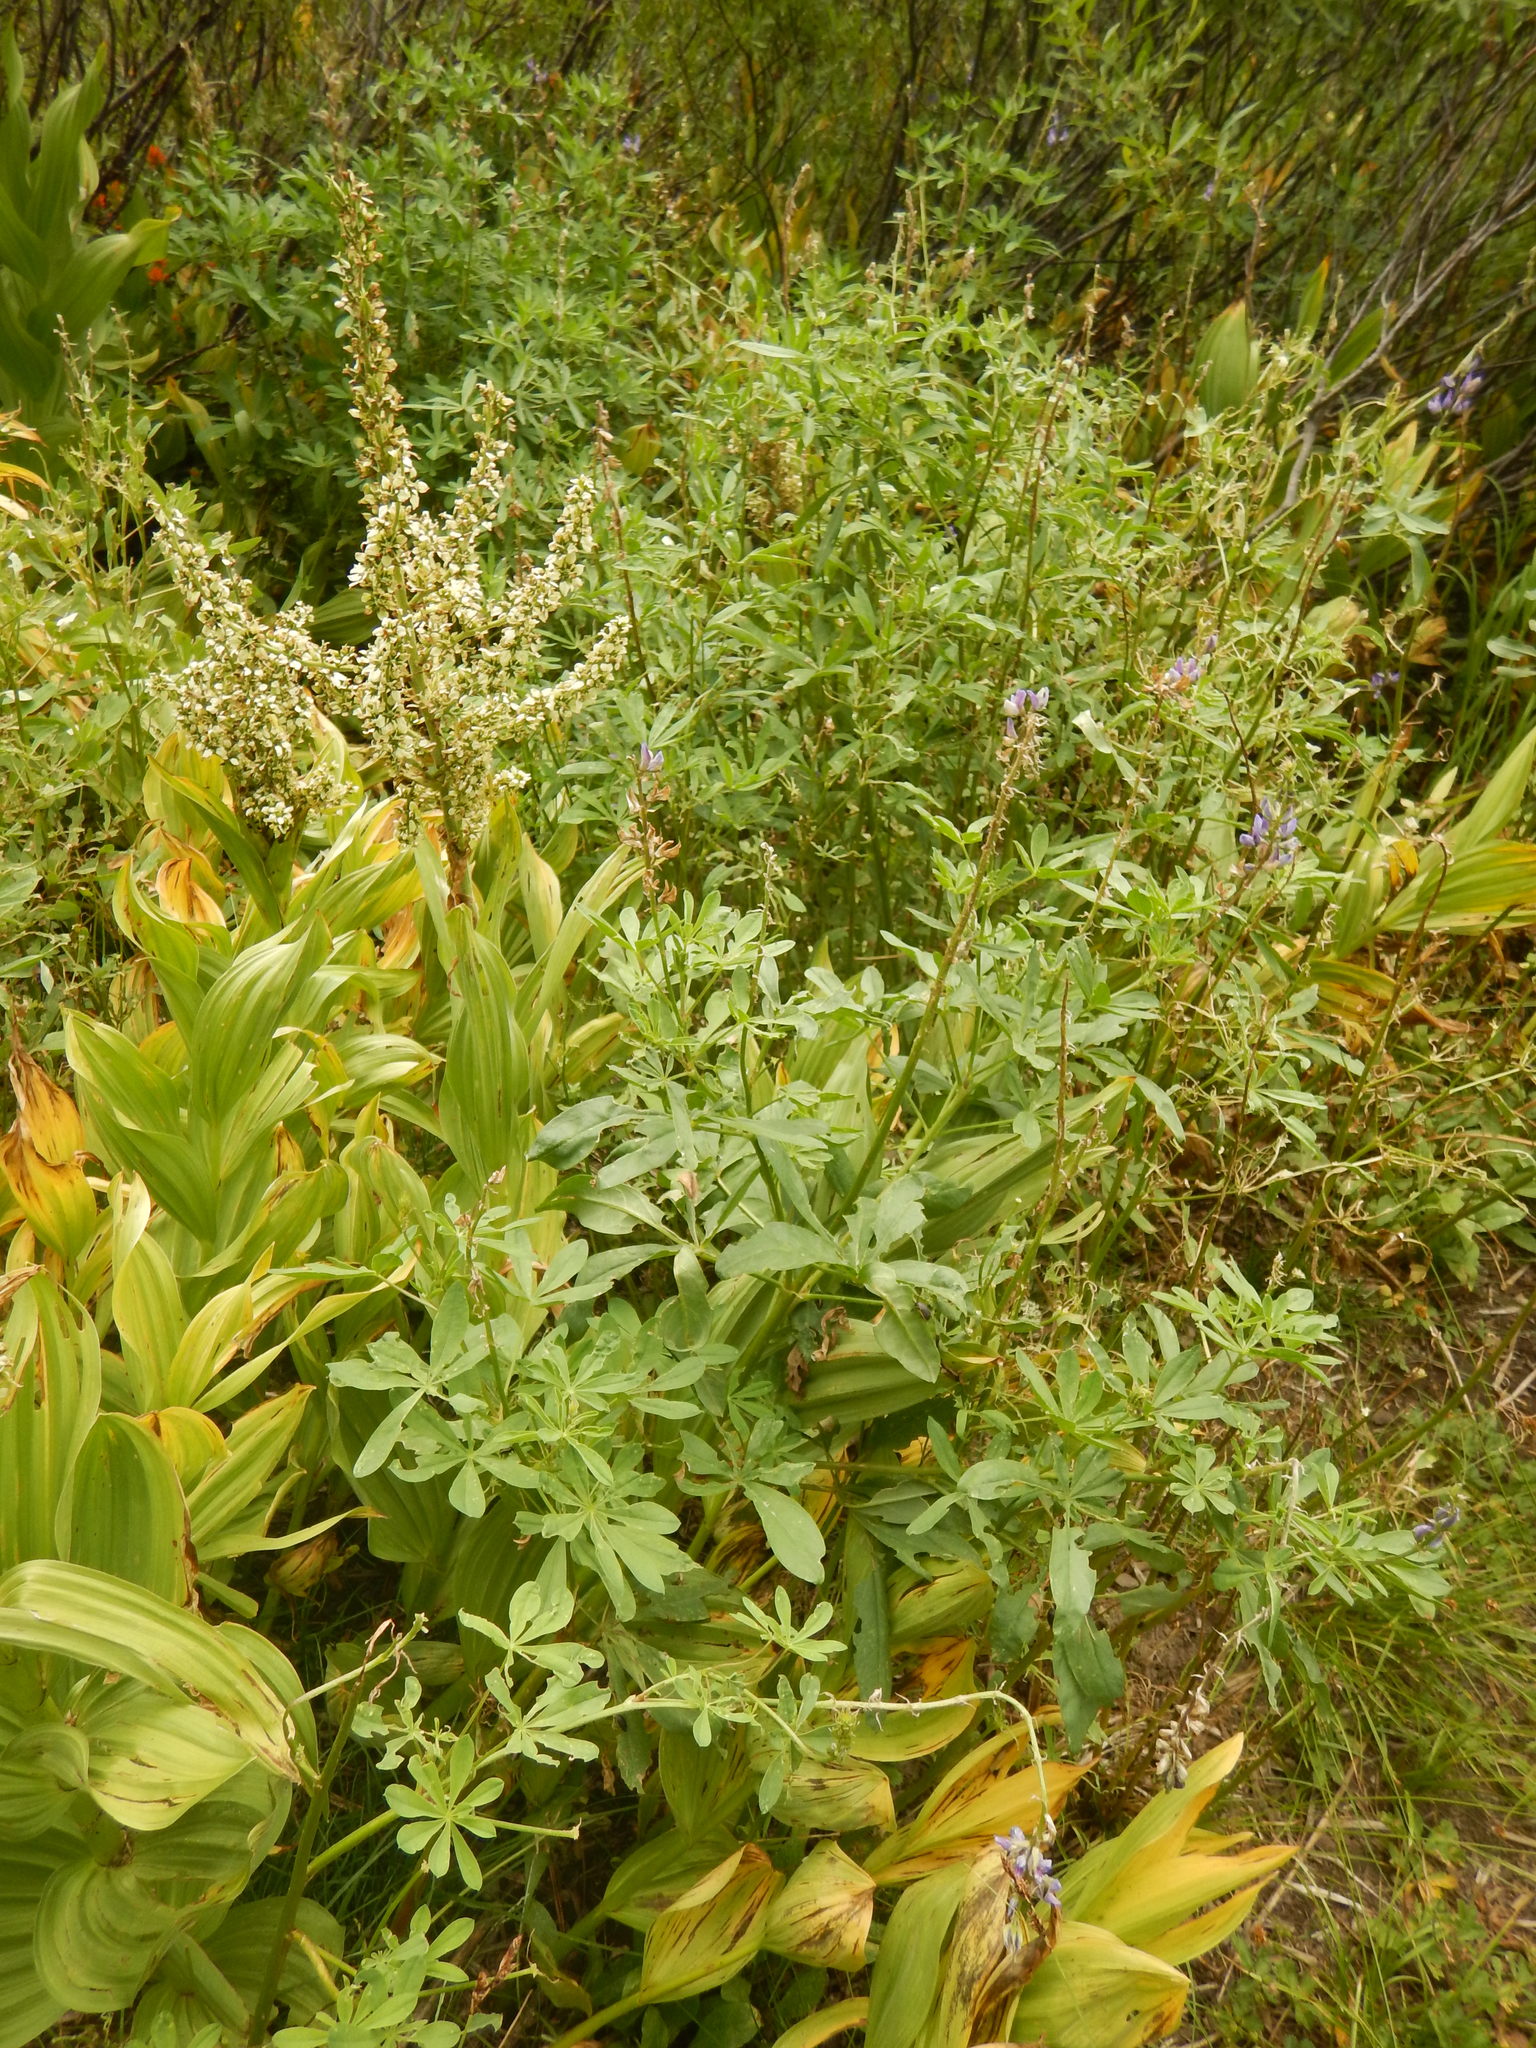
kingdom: Plantae
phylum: Tracheophyta
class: Liliopsida
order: Liliales
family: Melanthiaceae
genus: Veratrum
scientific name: Veratrum californicum
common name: California veratrum
